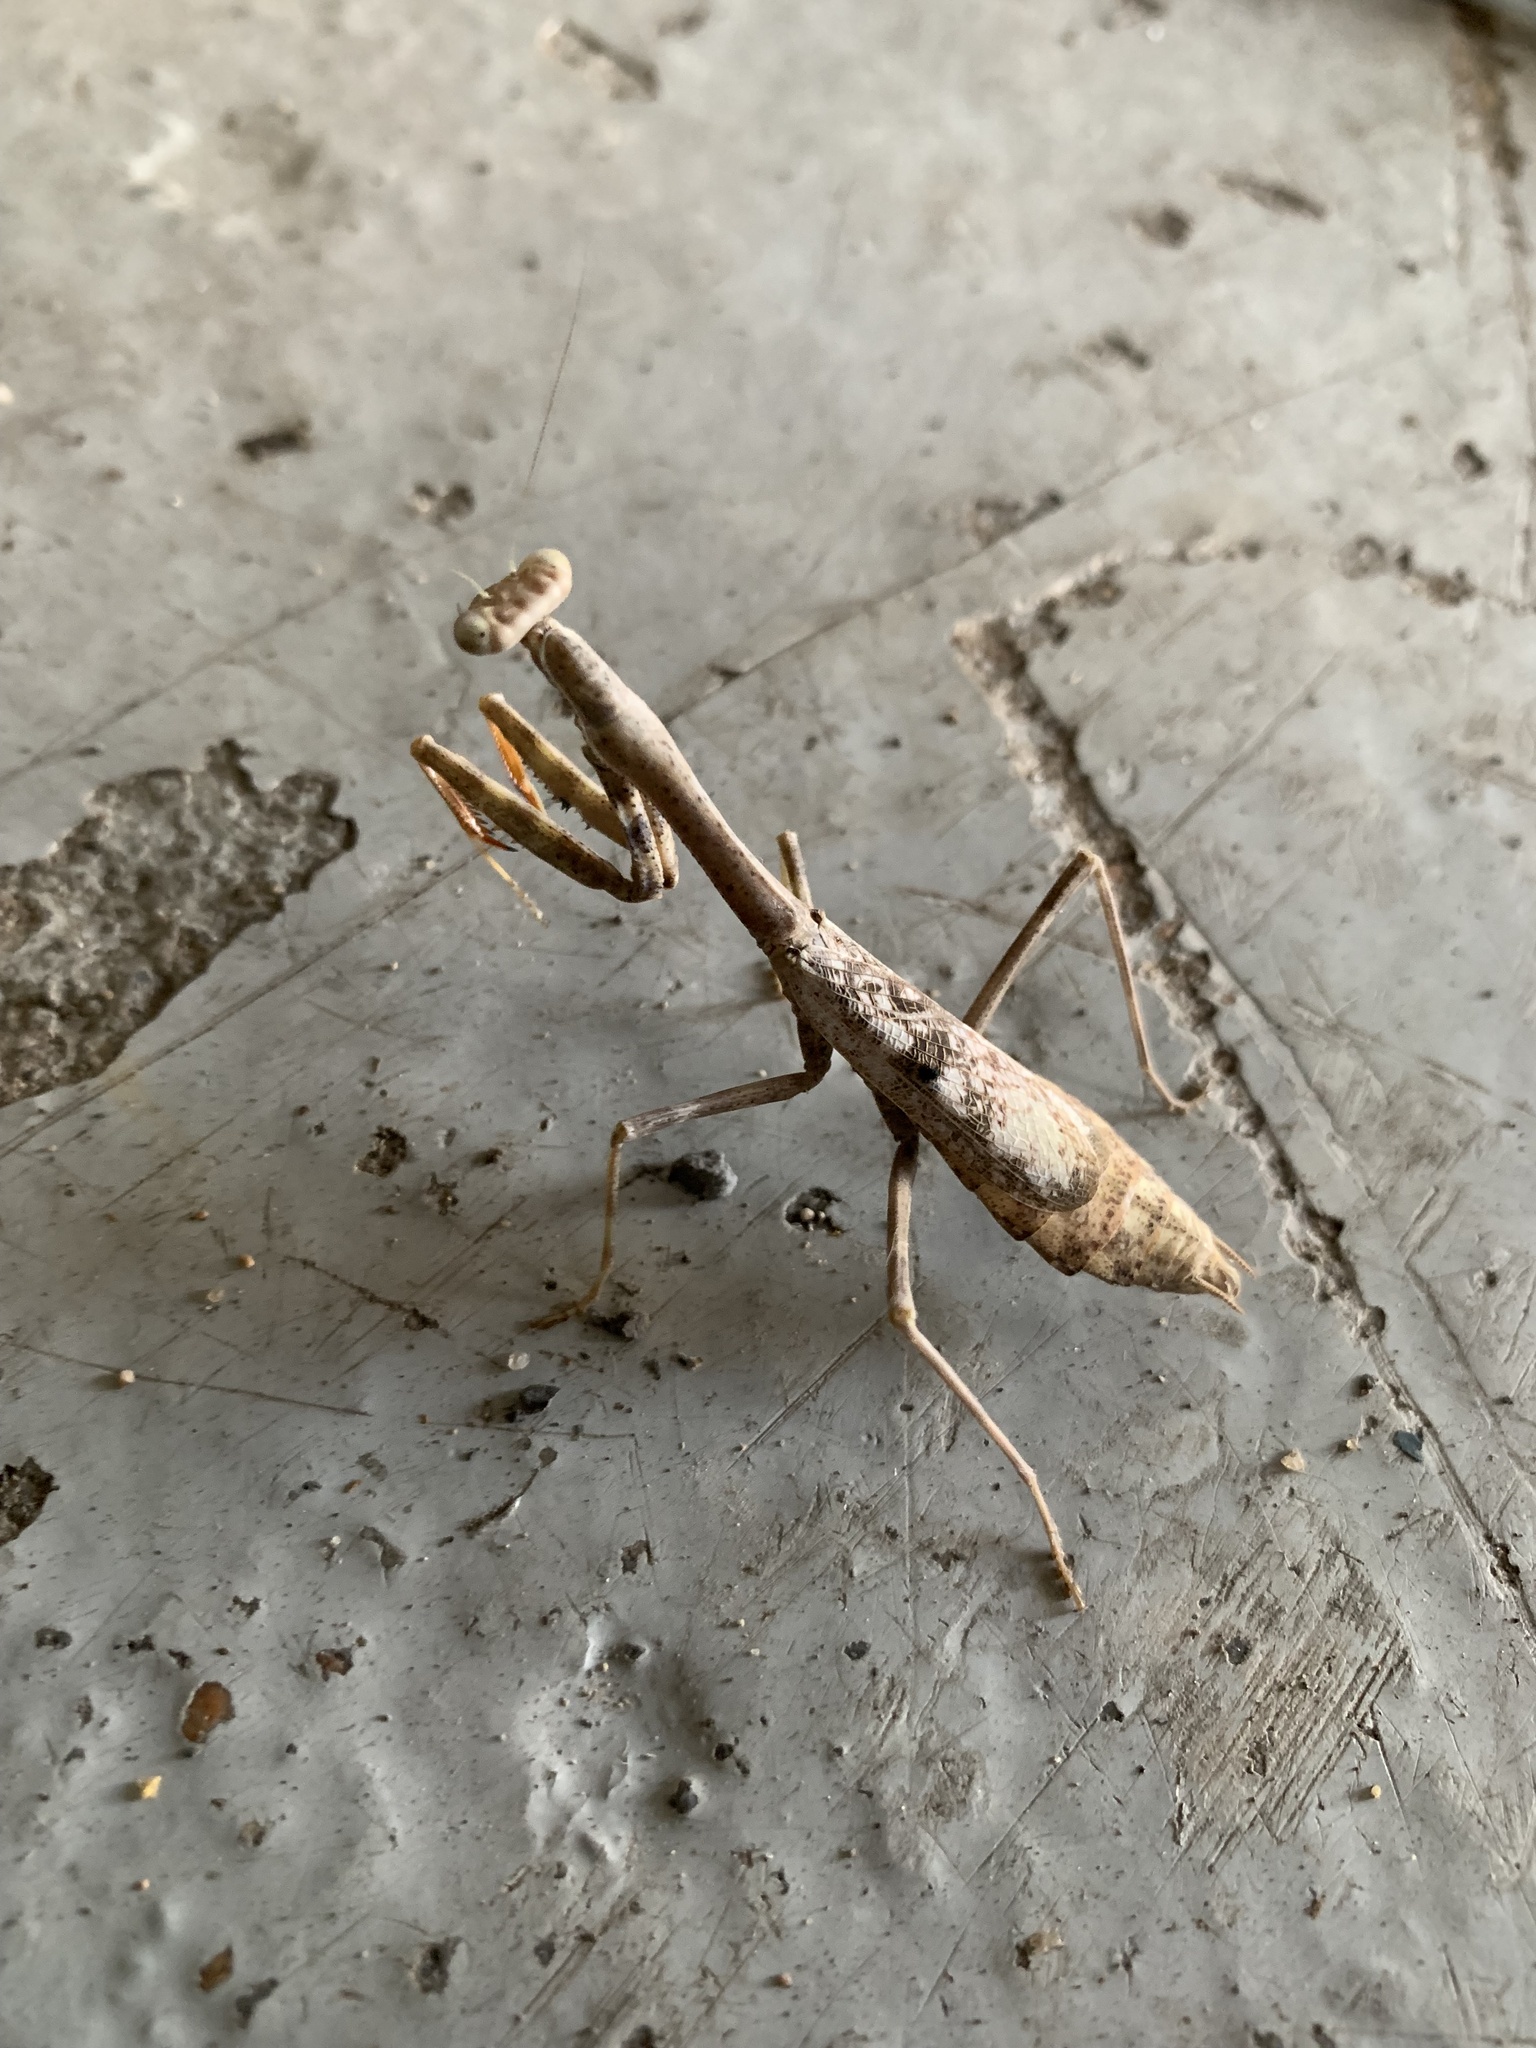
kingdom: Animalia
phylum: Arthropoda
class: Insecta
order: Mantodea
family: Mantidae
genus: Stagmomantis
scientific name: Stagmomantis carolina
